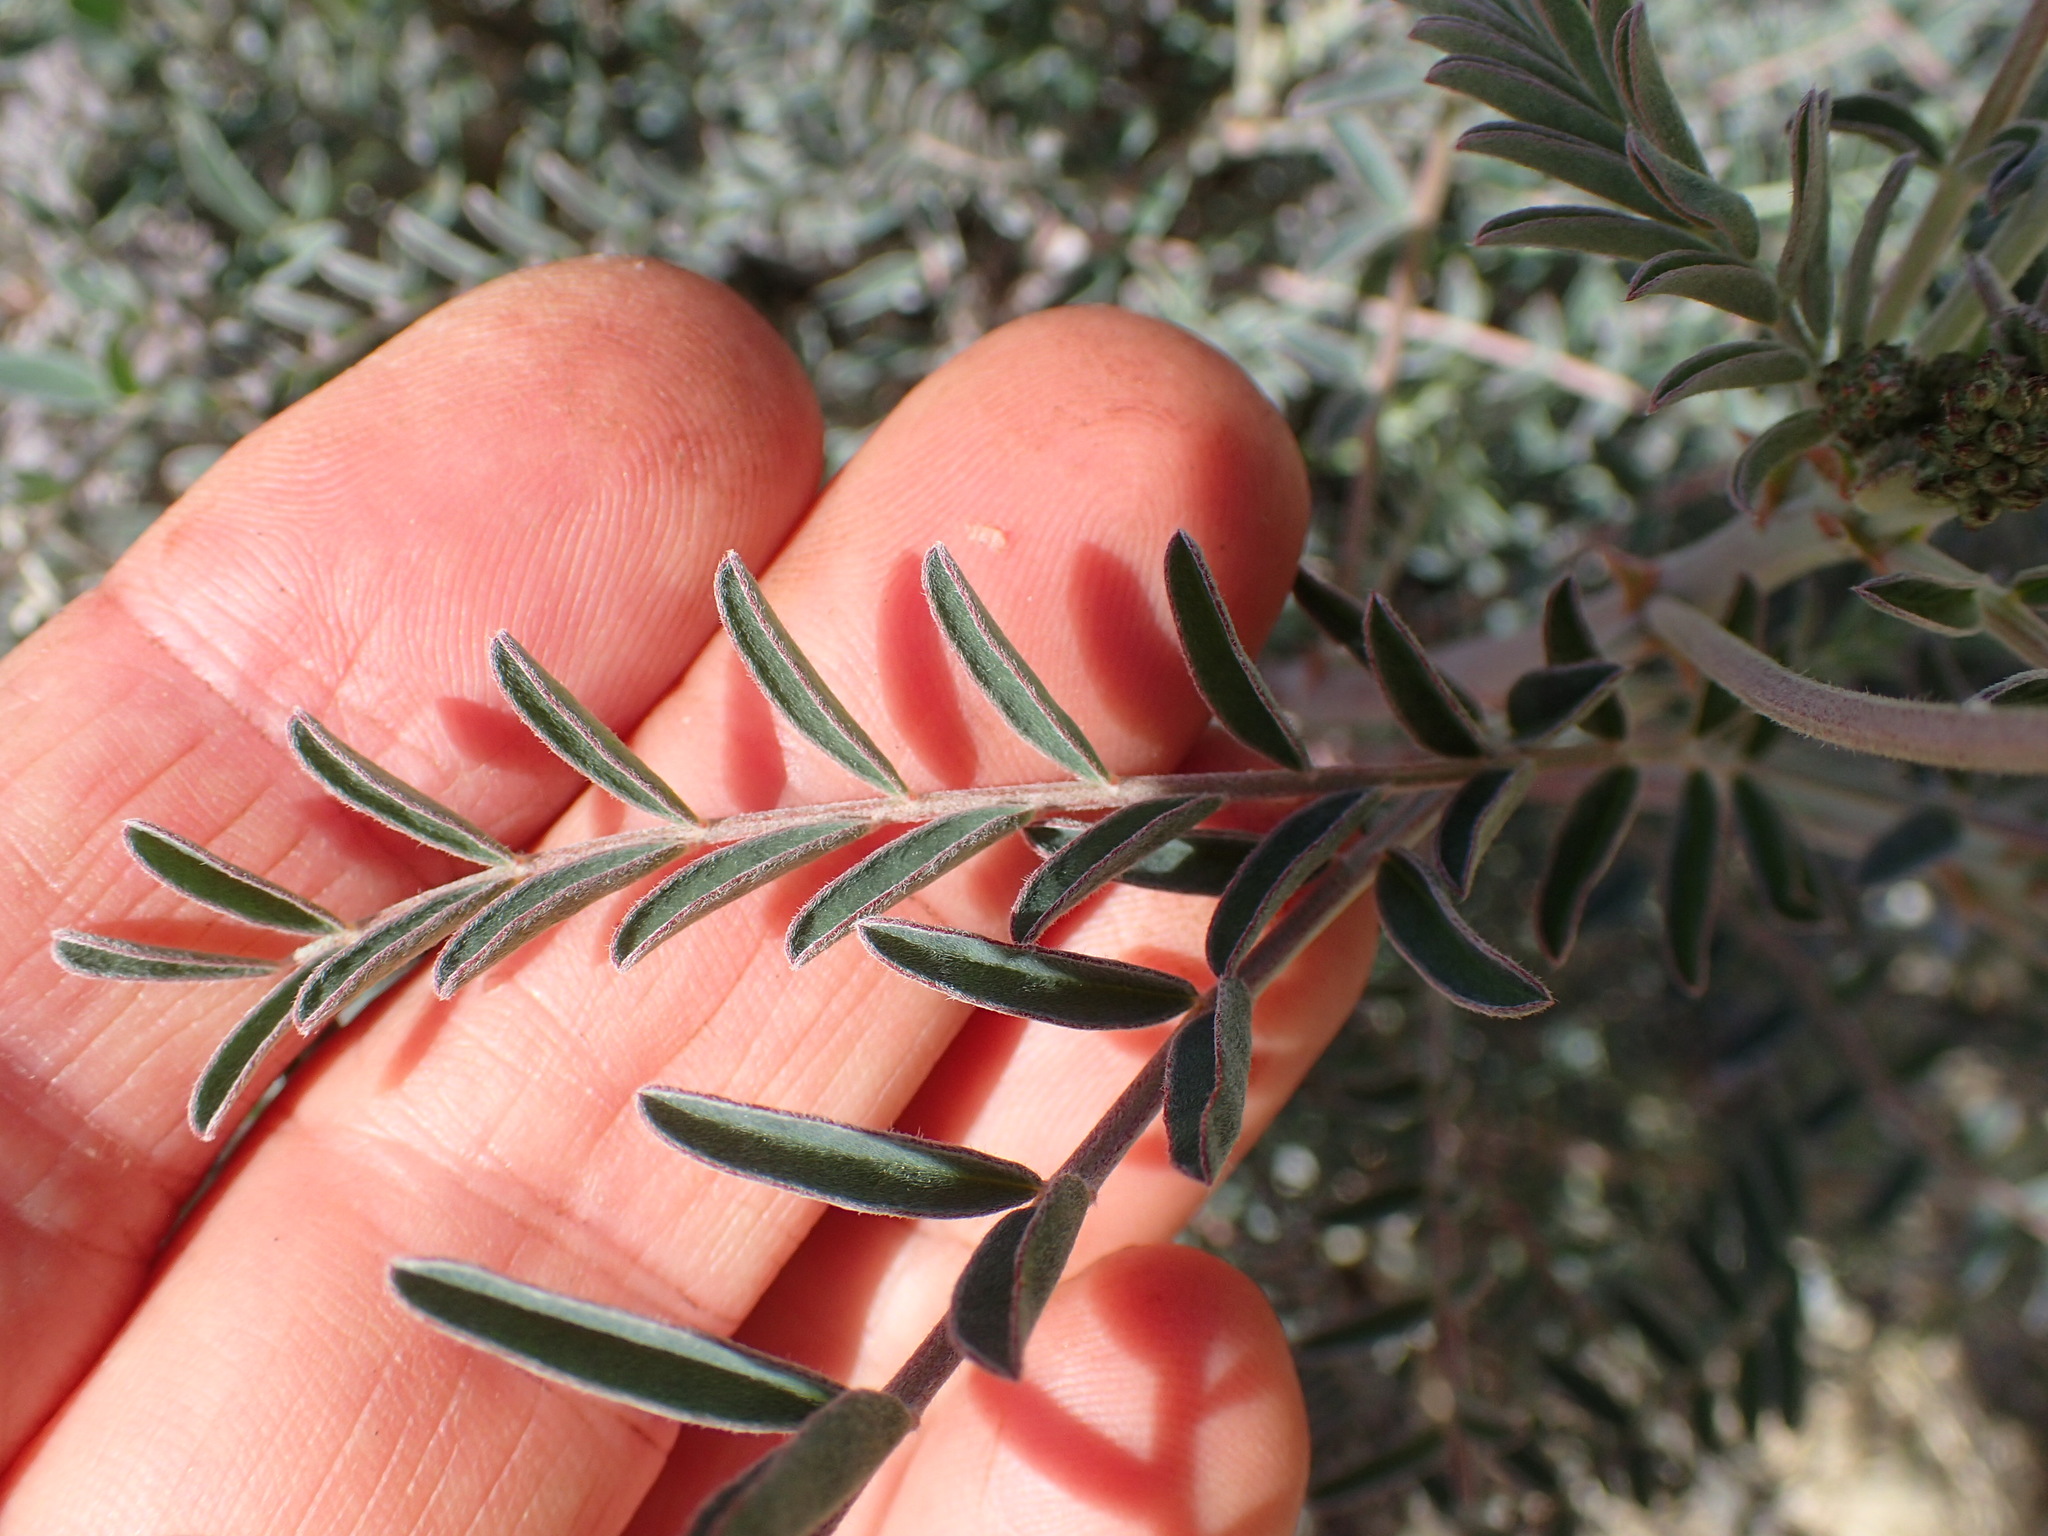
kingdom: Plantae
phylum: Tracheophyta
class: Magnoliopsida
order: Fabales
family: Fabaceae
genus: Astragalus
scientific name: Astragalus trichopodus
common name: Santa barbara milk-vetch
